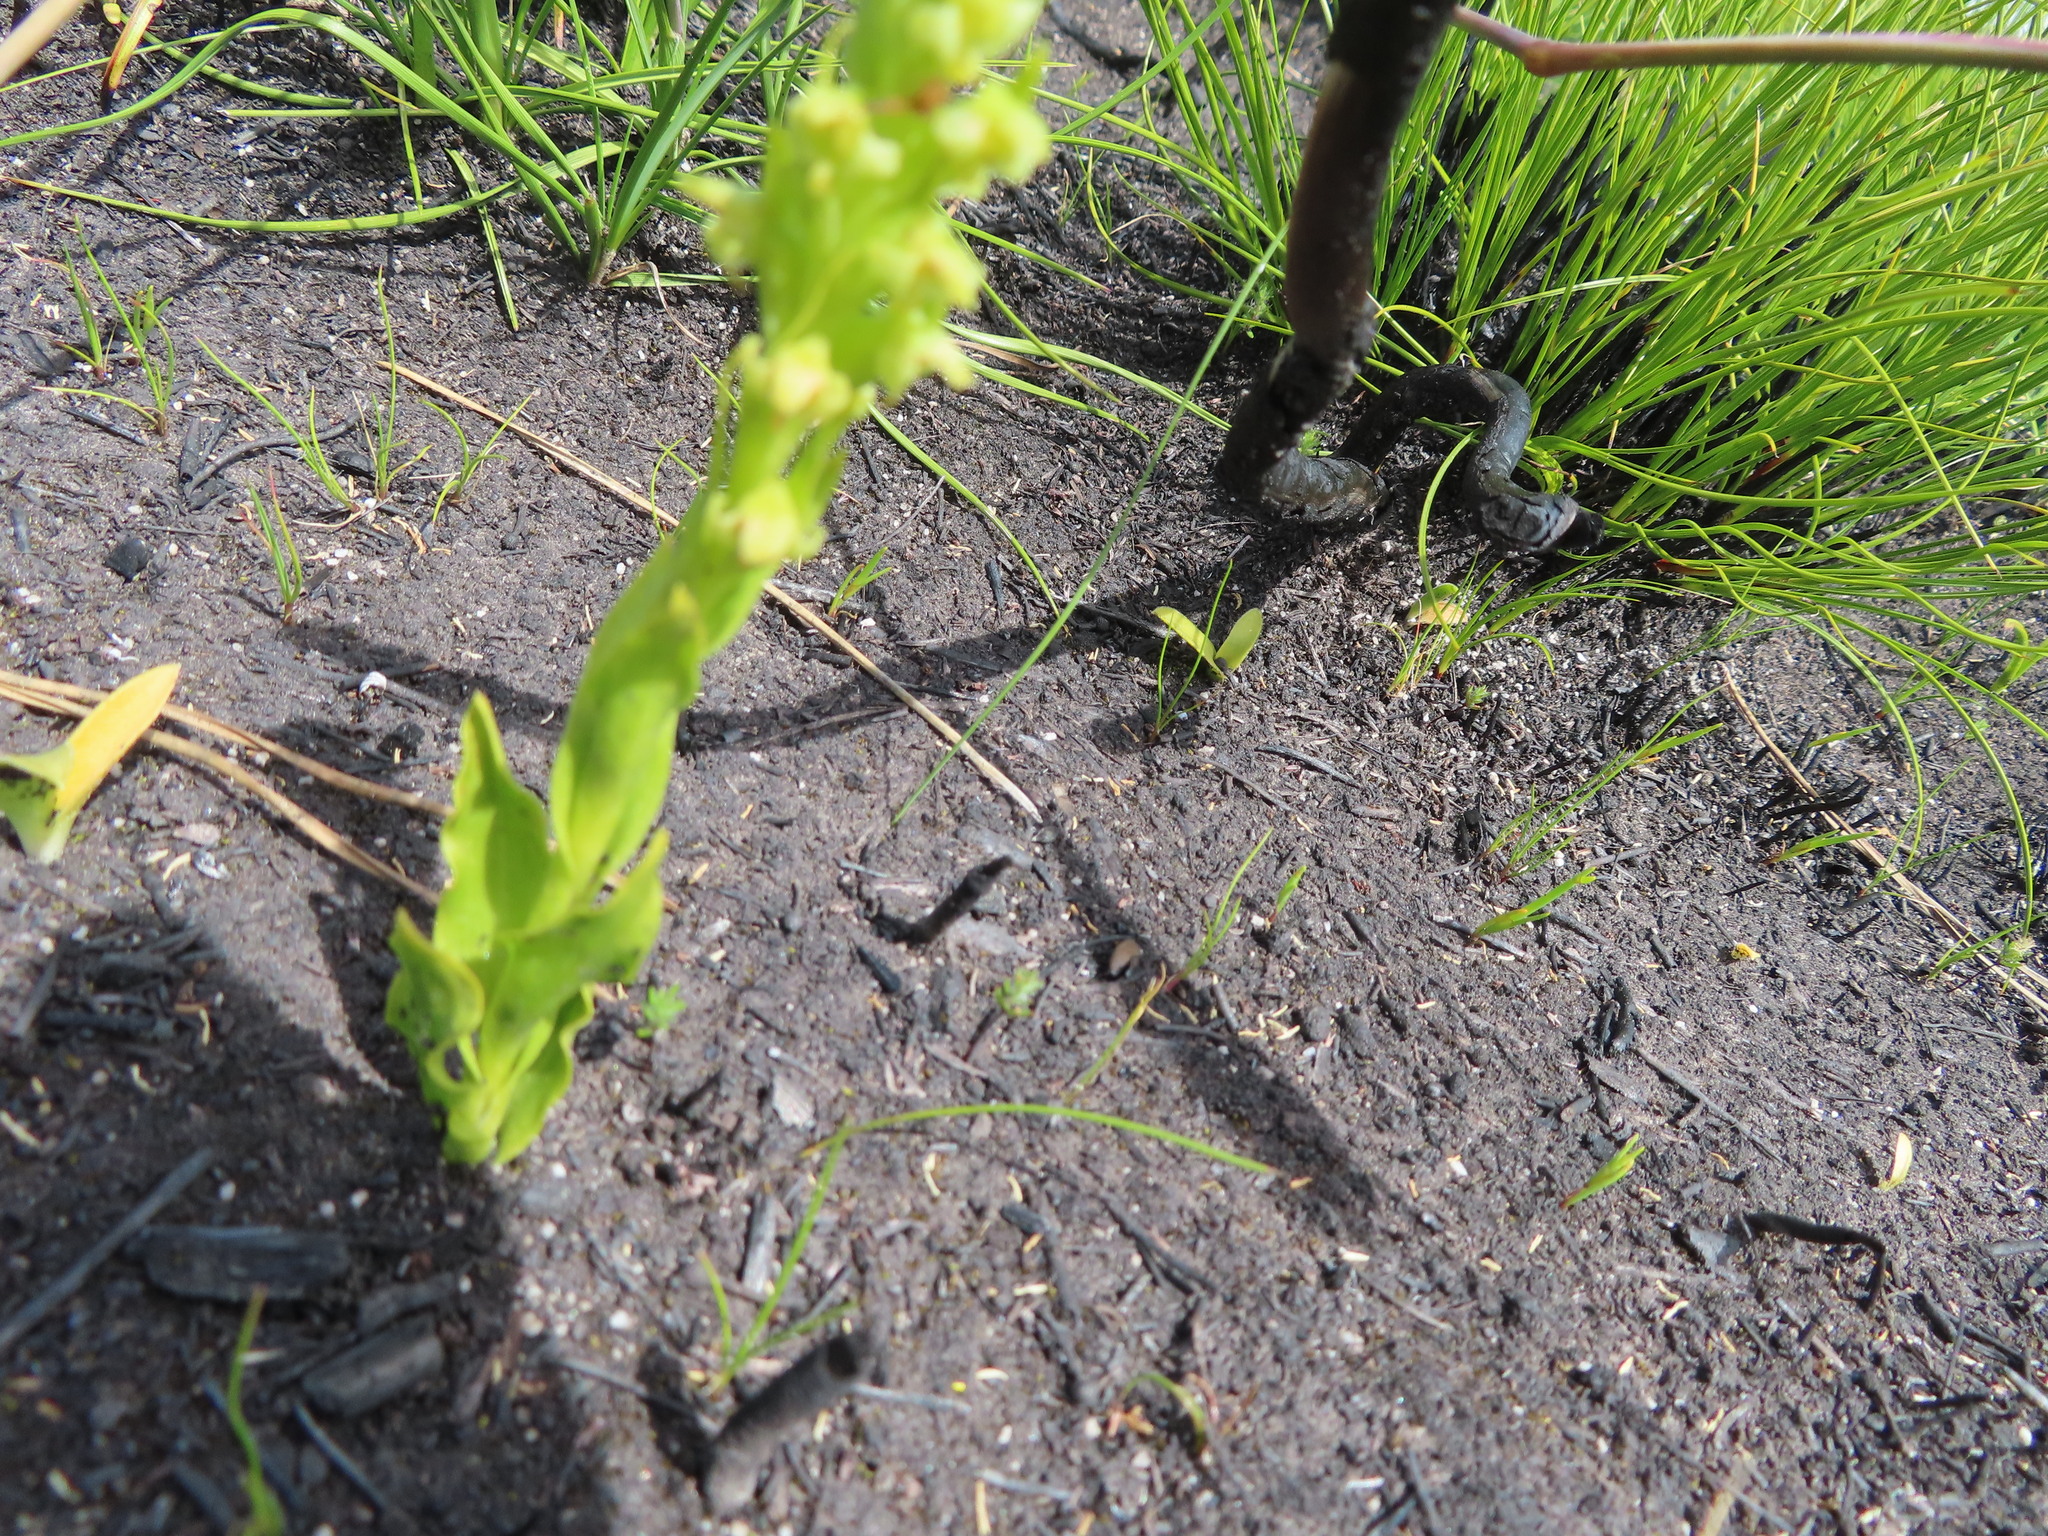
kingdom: Plantae
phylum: Tracheophyta
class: Liliopsida
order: Asparagales
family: Orchidaceae
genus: Disa
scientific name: Disa cylindrica
